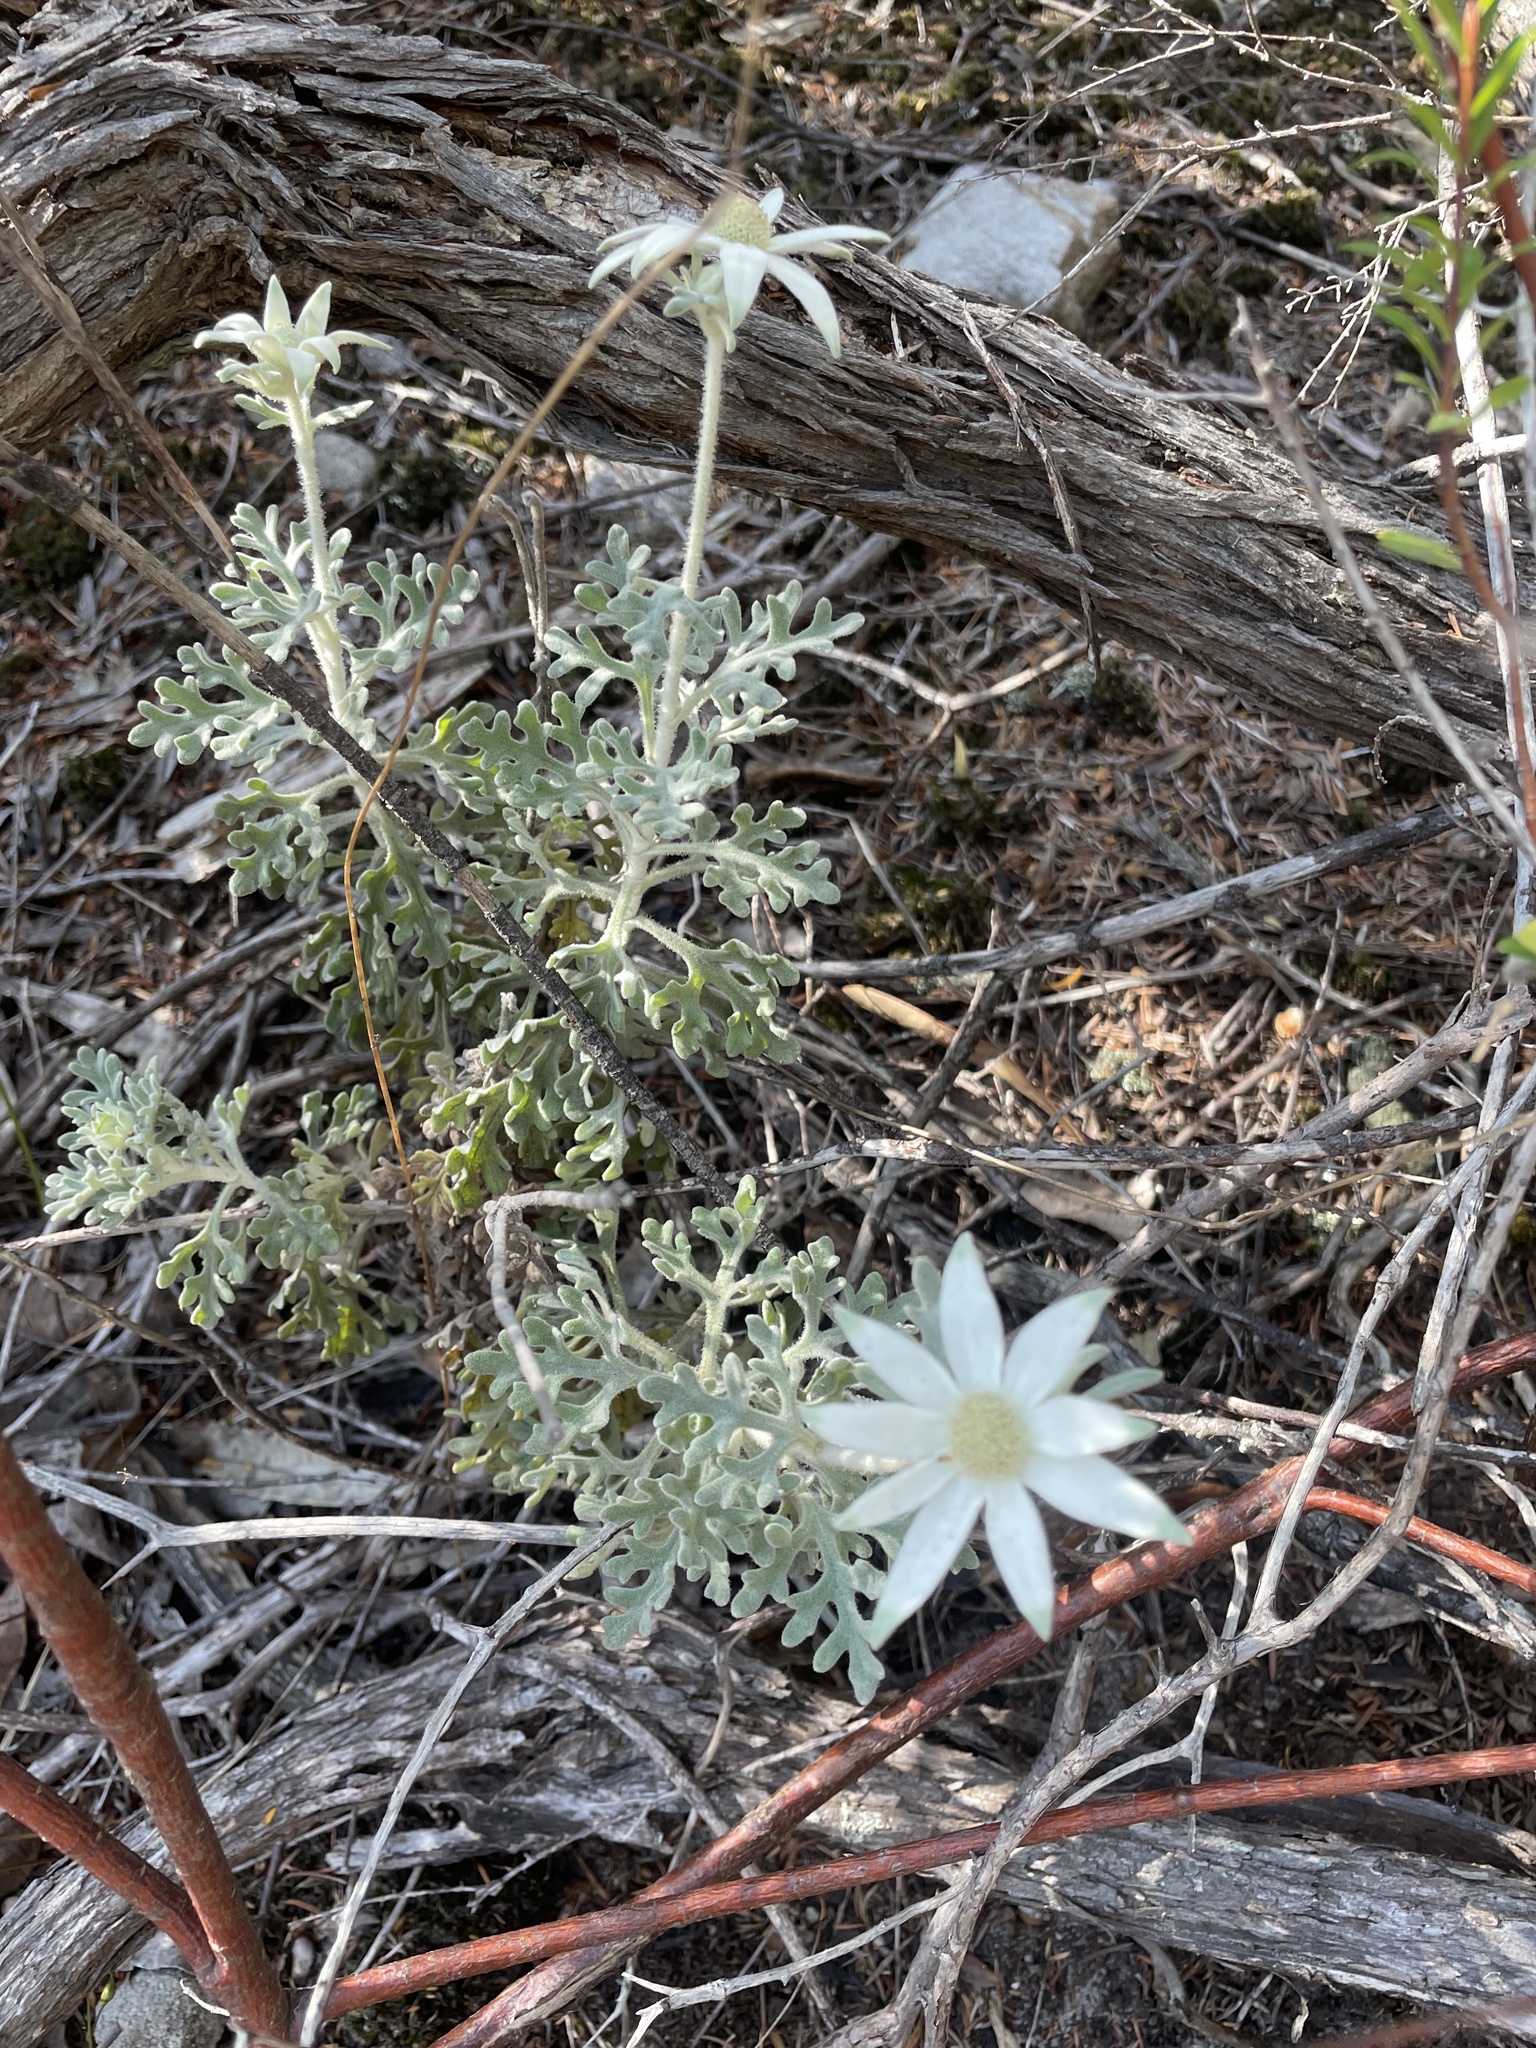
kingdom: Plantae
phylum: Tracheophyta
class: Magnoliopsida
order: Apiales
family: Apiaceae
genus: Actinotus
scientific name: Actinotus helianthi
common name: Flannel-flower
